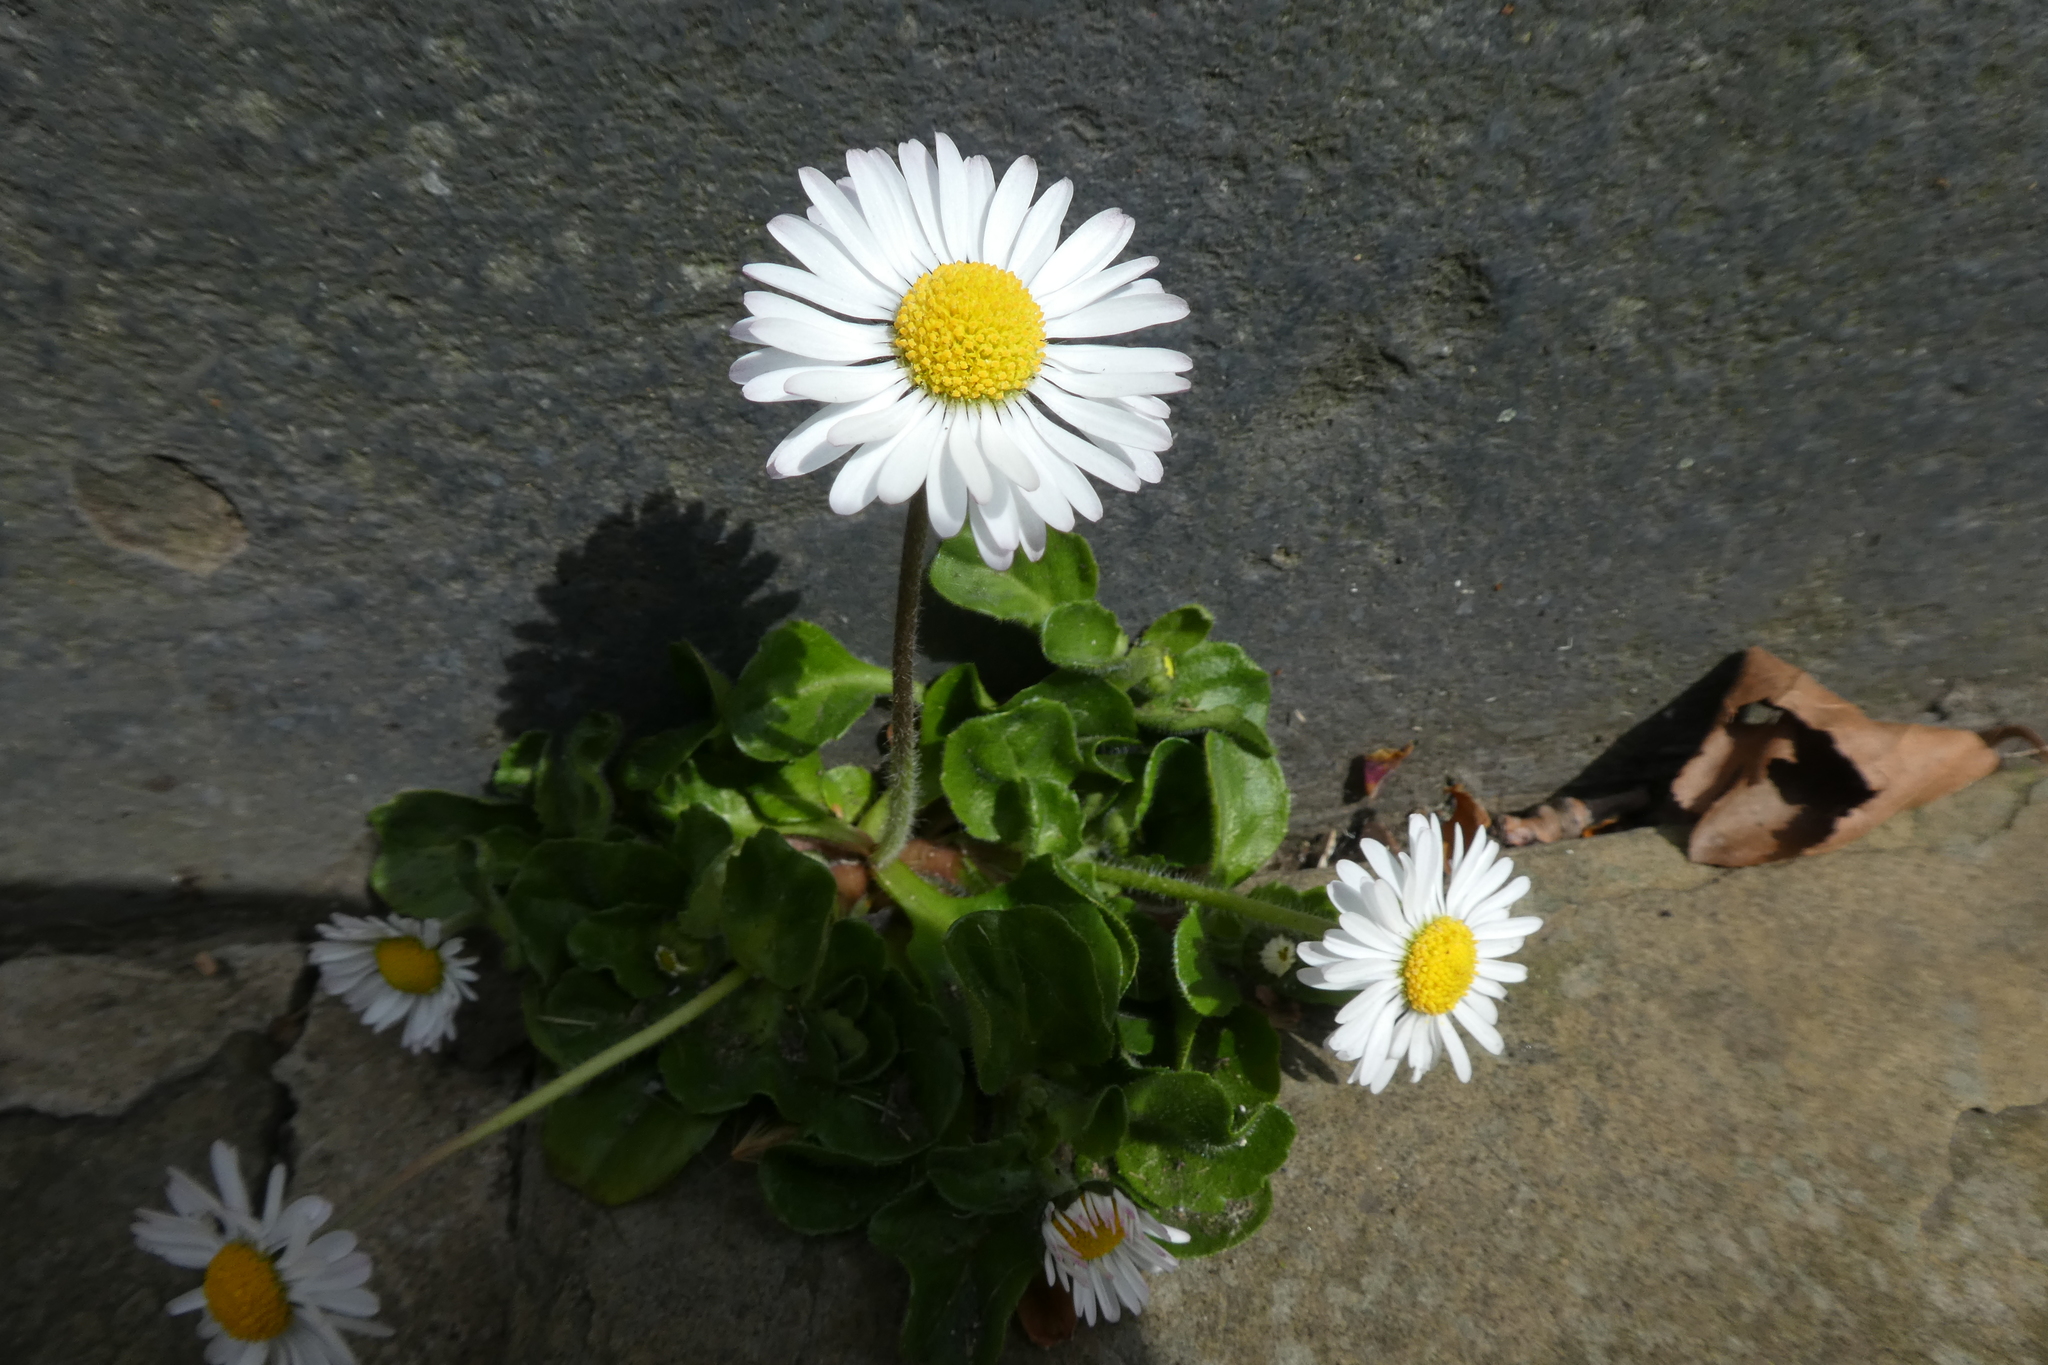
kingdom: Plantae
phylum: Tracheophyta
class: Magnoliopsida
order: Asterales
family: Asteraceae
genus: Bellis
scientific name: Bellis perennis
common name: Lawndaisy
